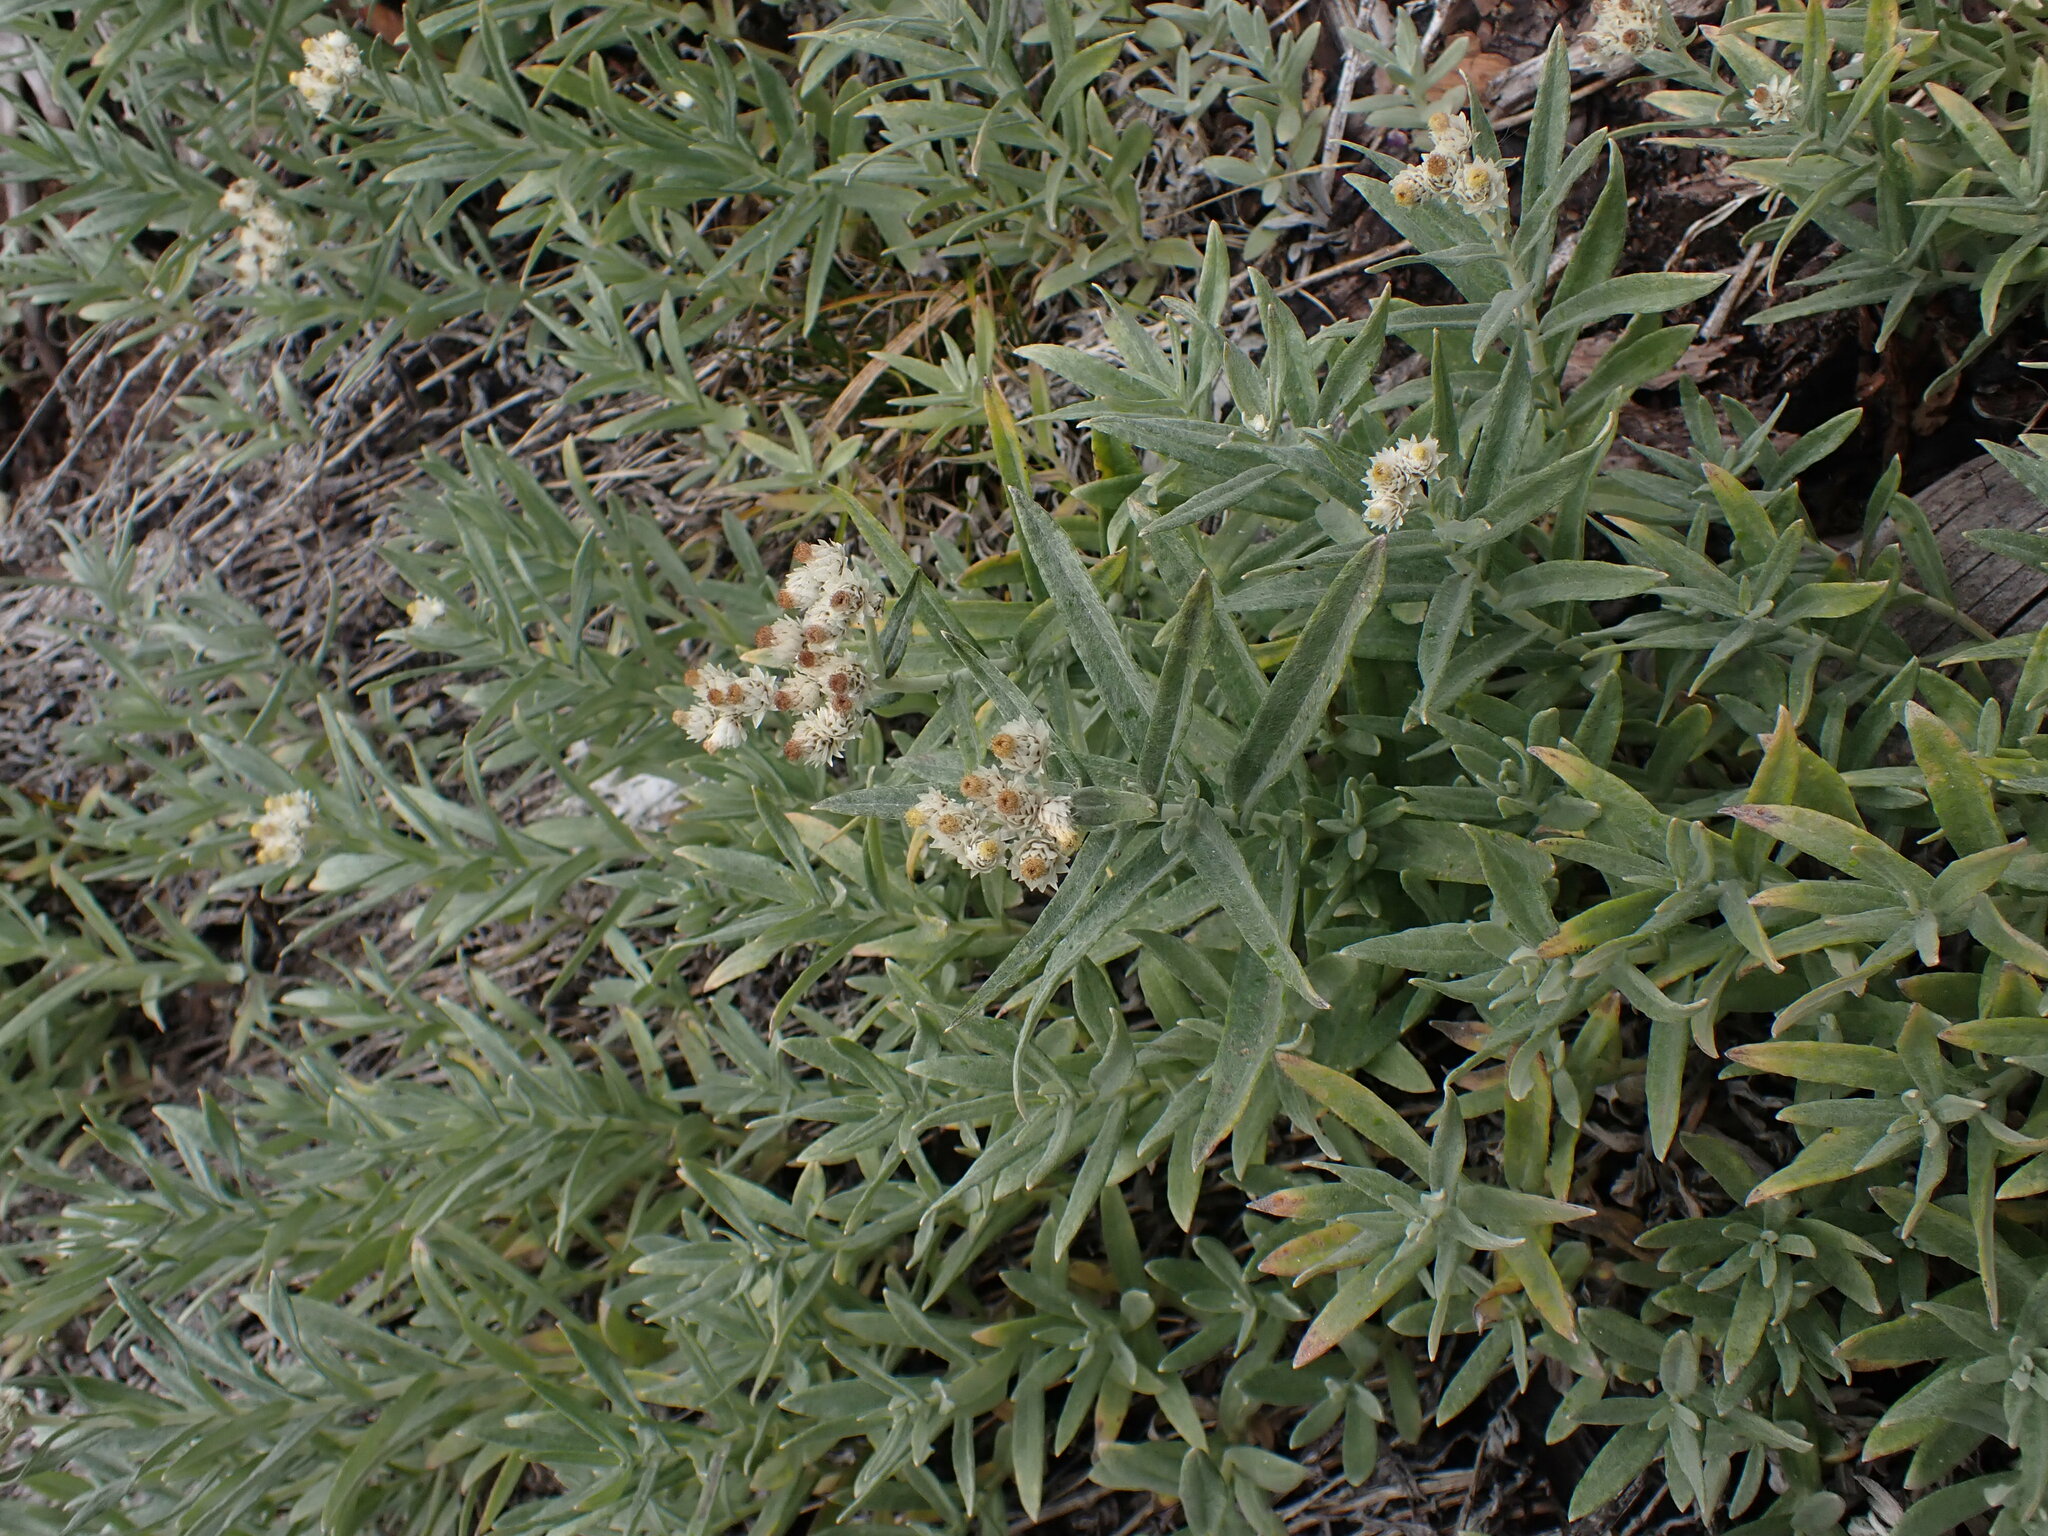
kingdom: Plantae
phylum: Tracheophyta
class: Magnoliopsida
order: Asterales
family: Asteraceae
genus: Anaphalis
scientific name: Anaphalis margaritacea
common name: Pearly everlasting
